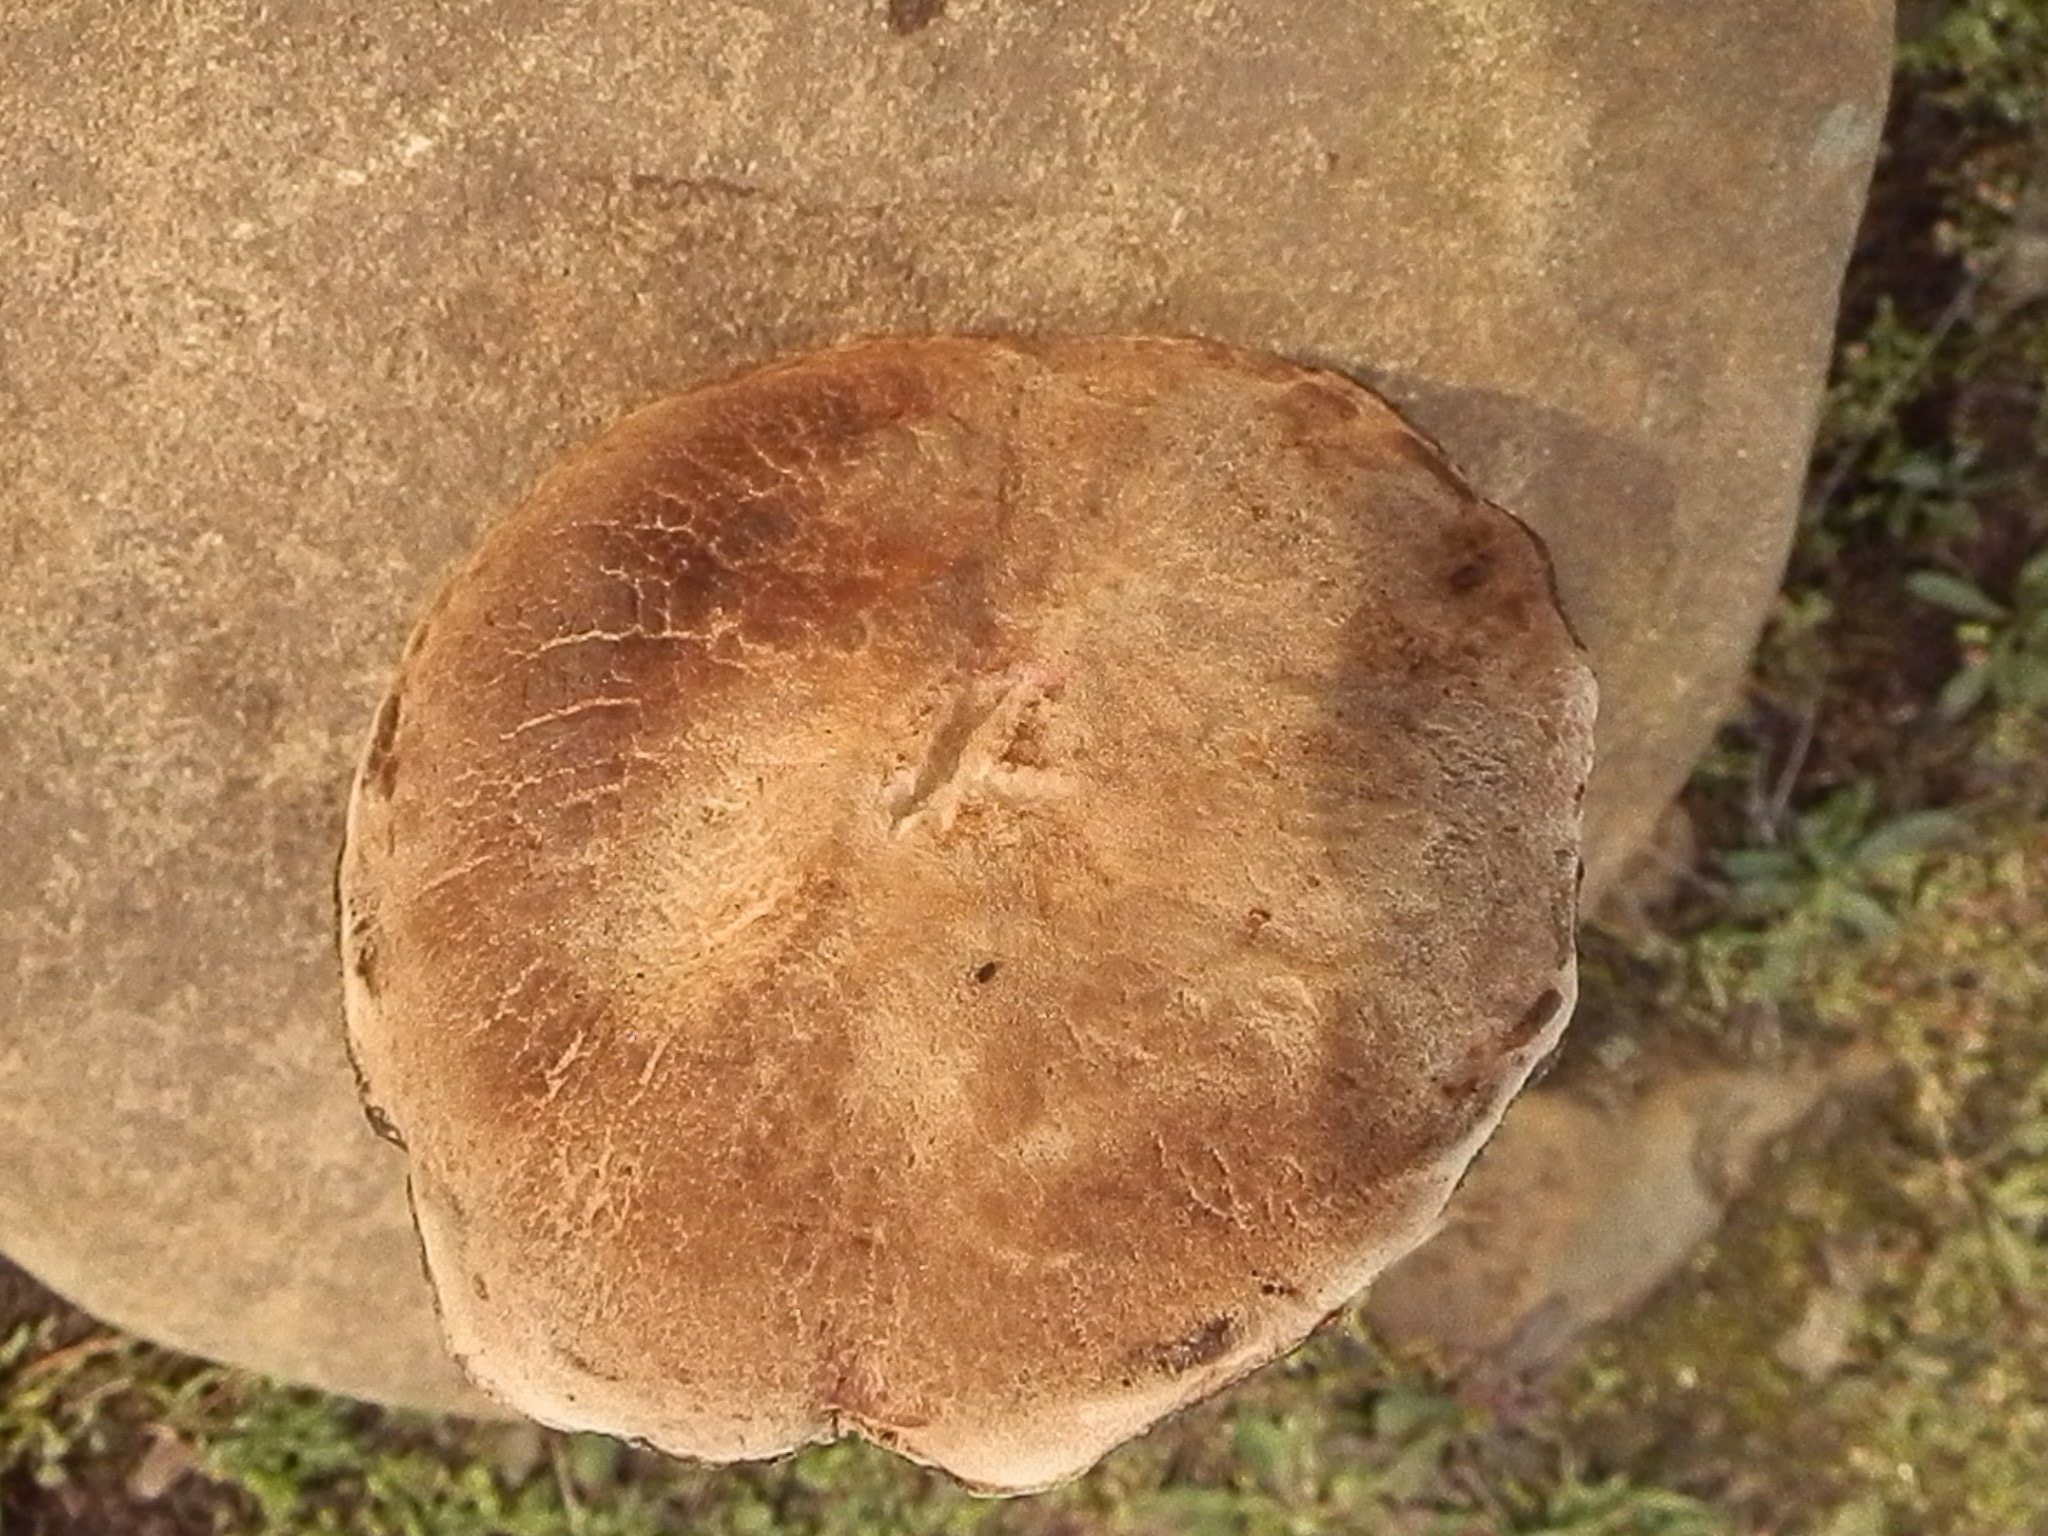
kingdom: Fungi
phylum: Basidiomycota
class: Agaricomycetes
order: Boletales
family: Boletaceae
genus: Xerocomellus
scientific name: Xerocomellus mendocinensis
